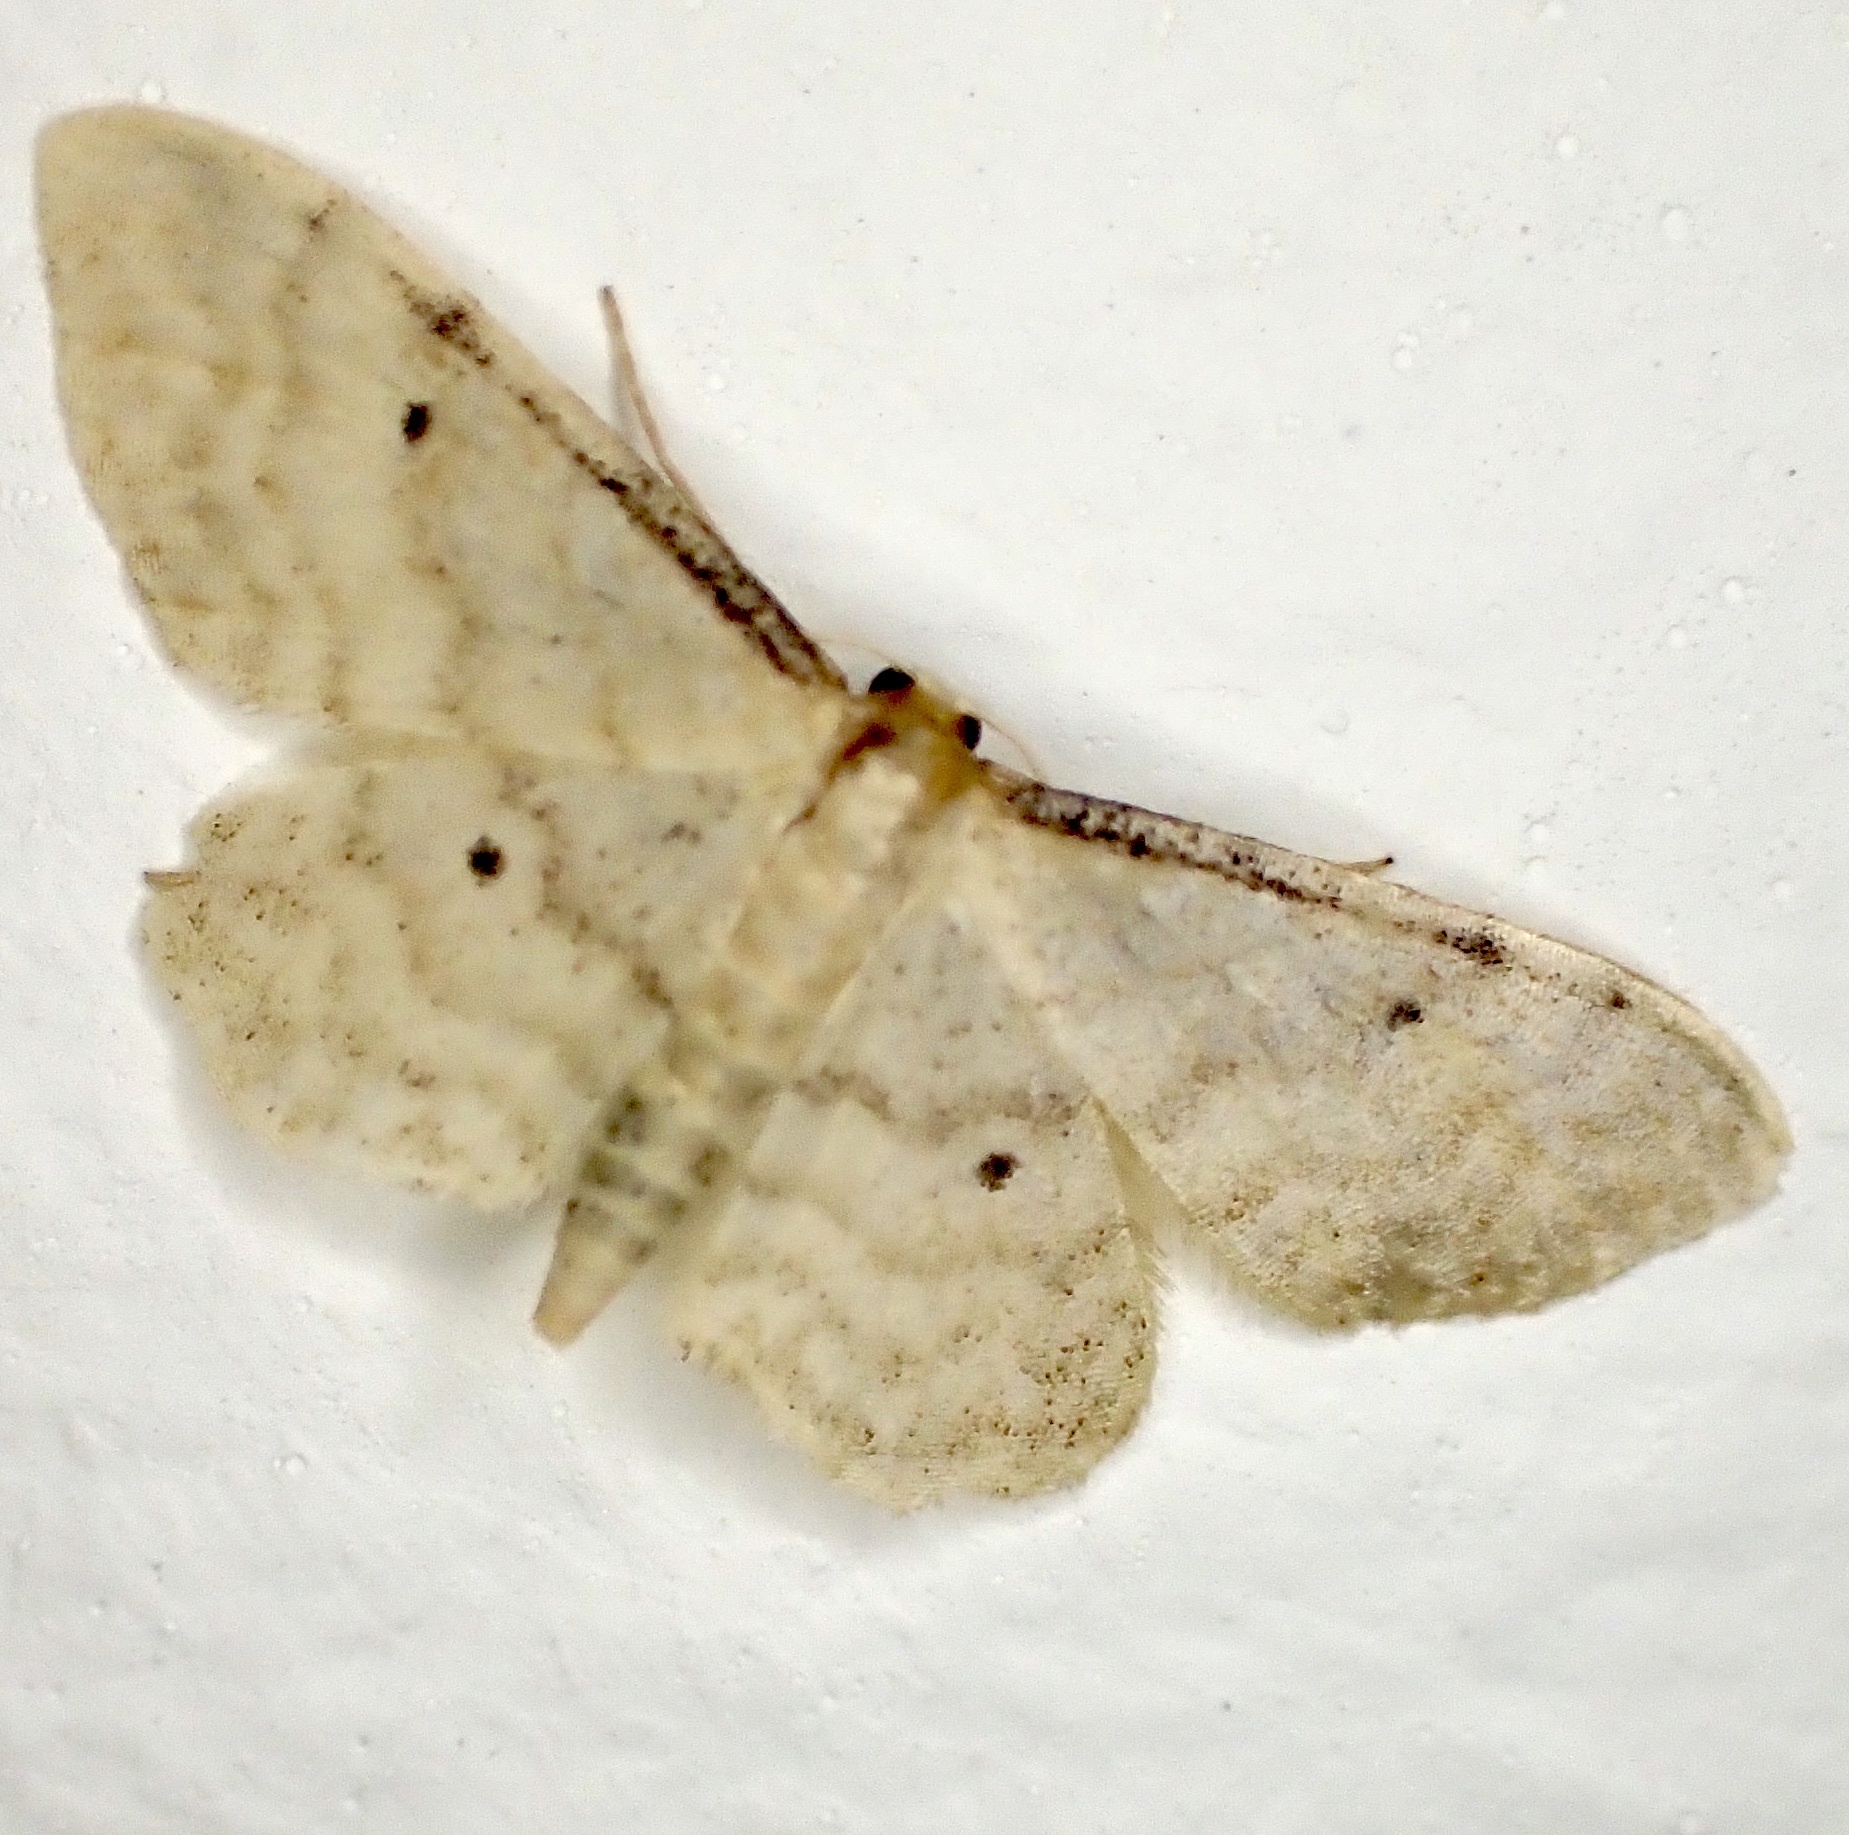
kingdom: Animalia
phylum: Arthropoda
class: Insecta
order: Lepidoptera
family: Geometridae
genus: Idaea
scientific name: Idaea fuscovenosa
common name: Dwarf cream wave
